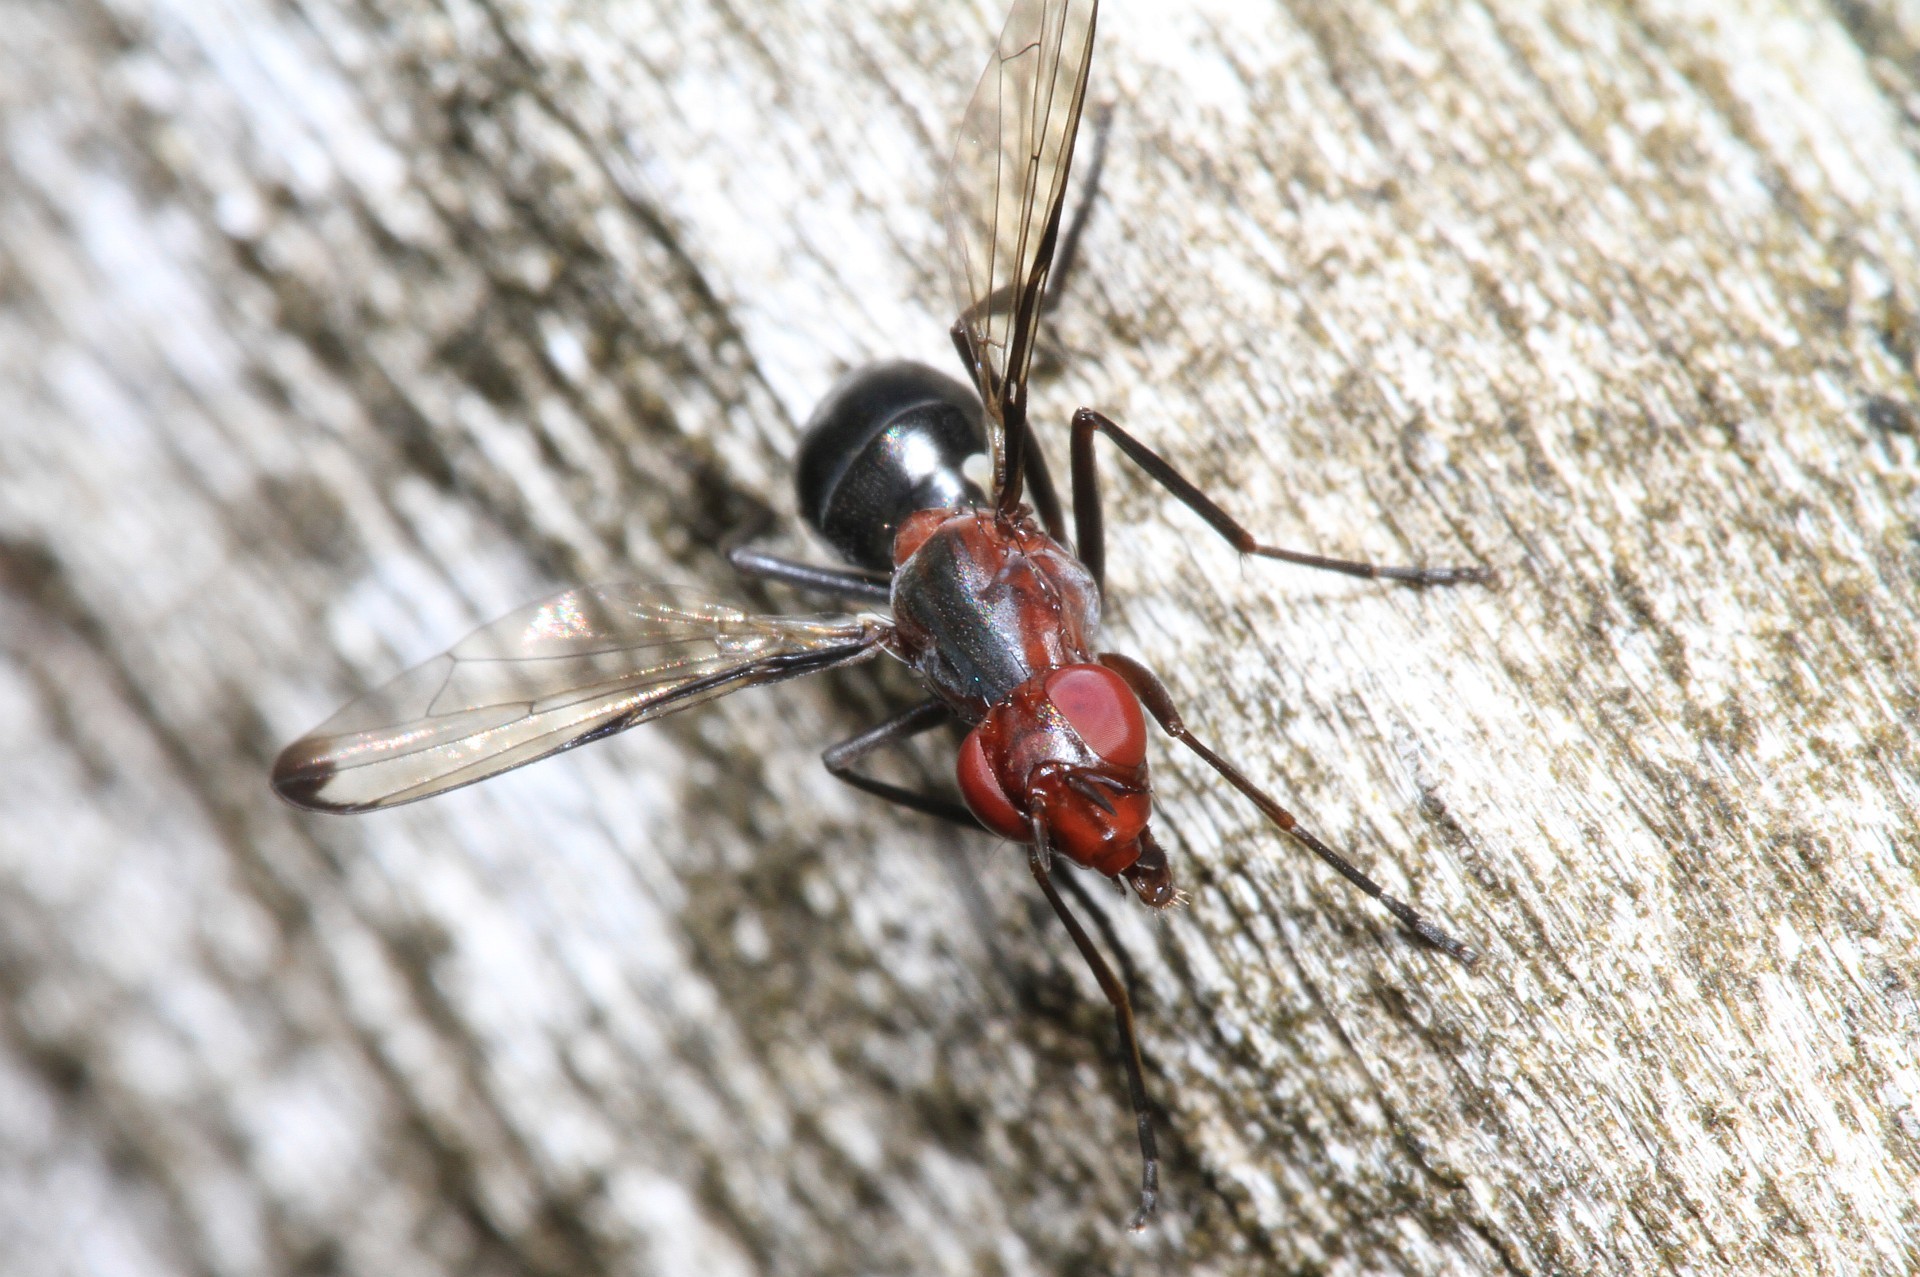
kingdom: Animalia
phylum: Arthropoda
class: Insecta
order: Diptera
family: Ulidiidae
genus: Cephalia
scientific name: Cephalia rufipes
